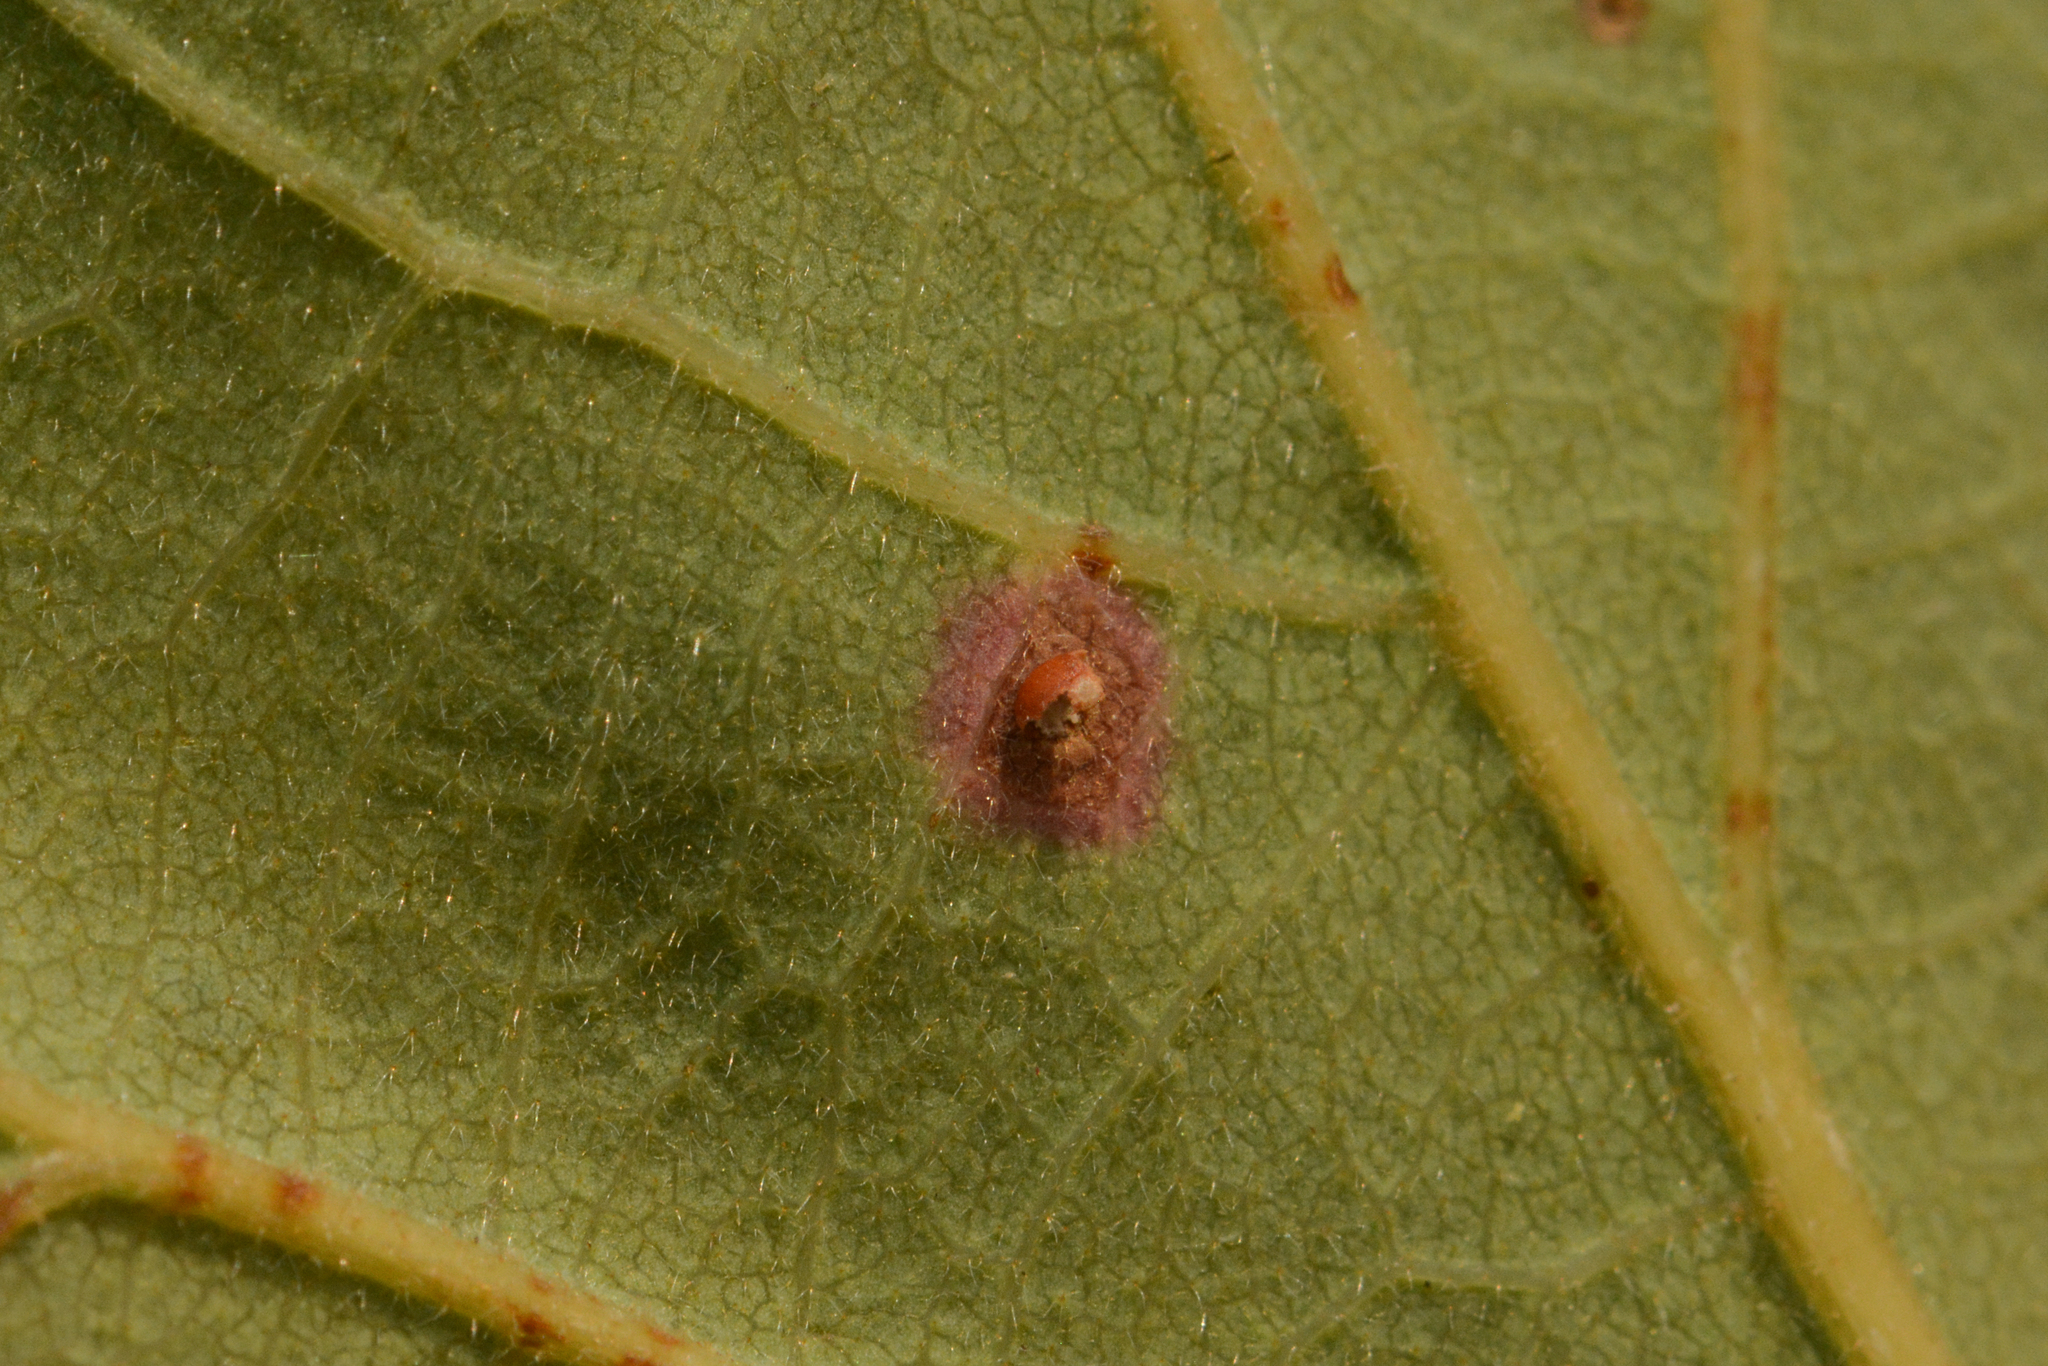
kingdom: Animalia
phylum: Arthropoda
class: Insecta
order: Hymenoptera
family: Cynipidae
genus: Neuroterus
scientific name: Neuroterus saltarius
